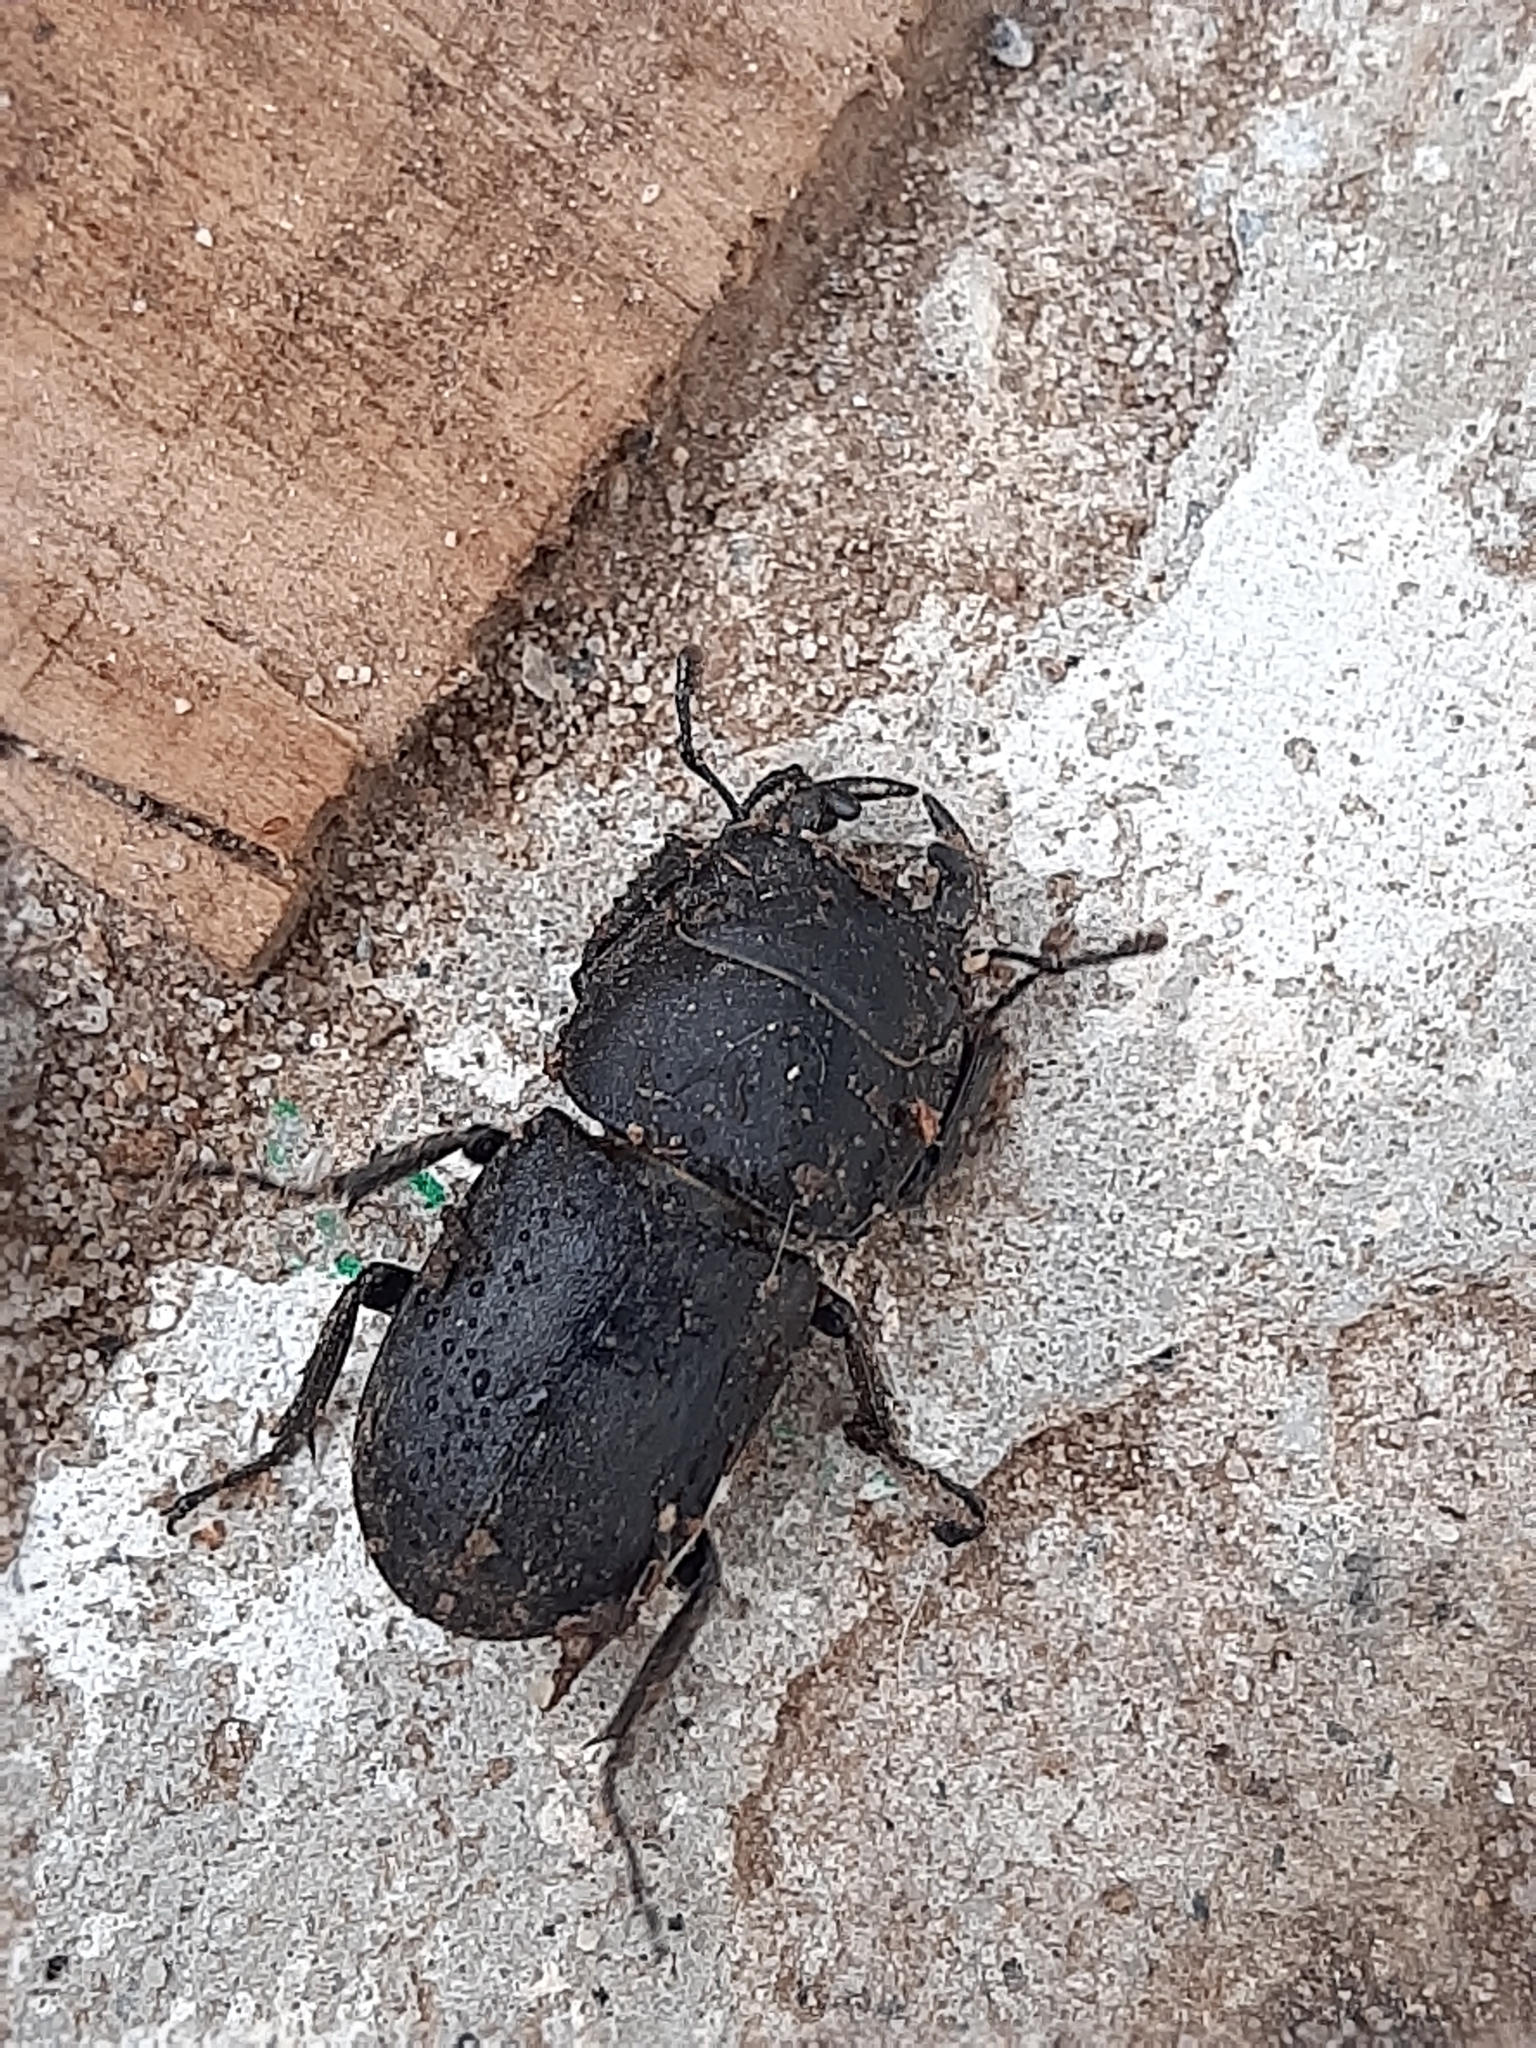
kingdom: Animalia
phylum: Arthropoda
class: Insecta
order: Coleoptera
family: Lucanidae
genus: Dorcus
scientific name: Dorcus parallelipipedus
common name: Lesser stag beetle
